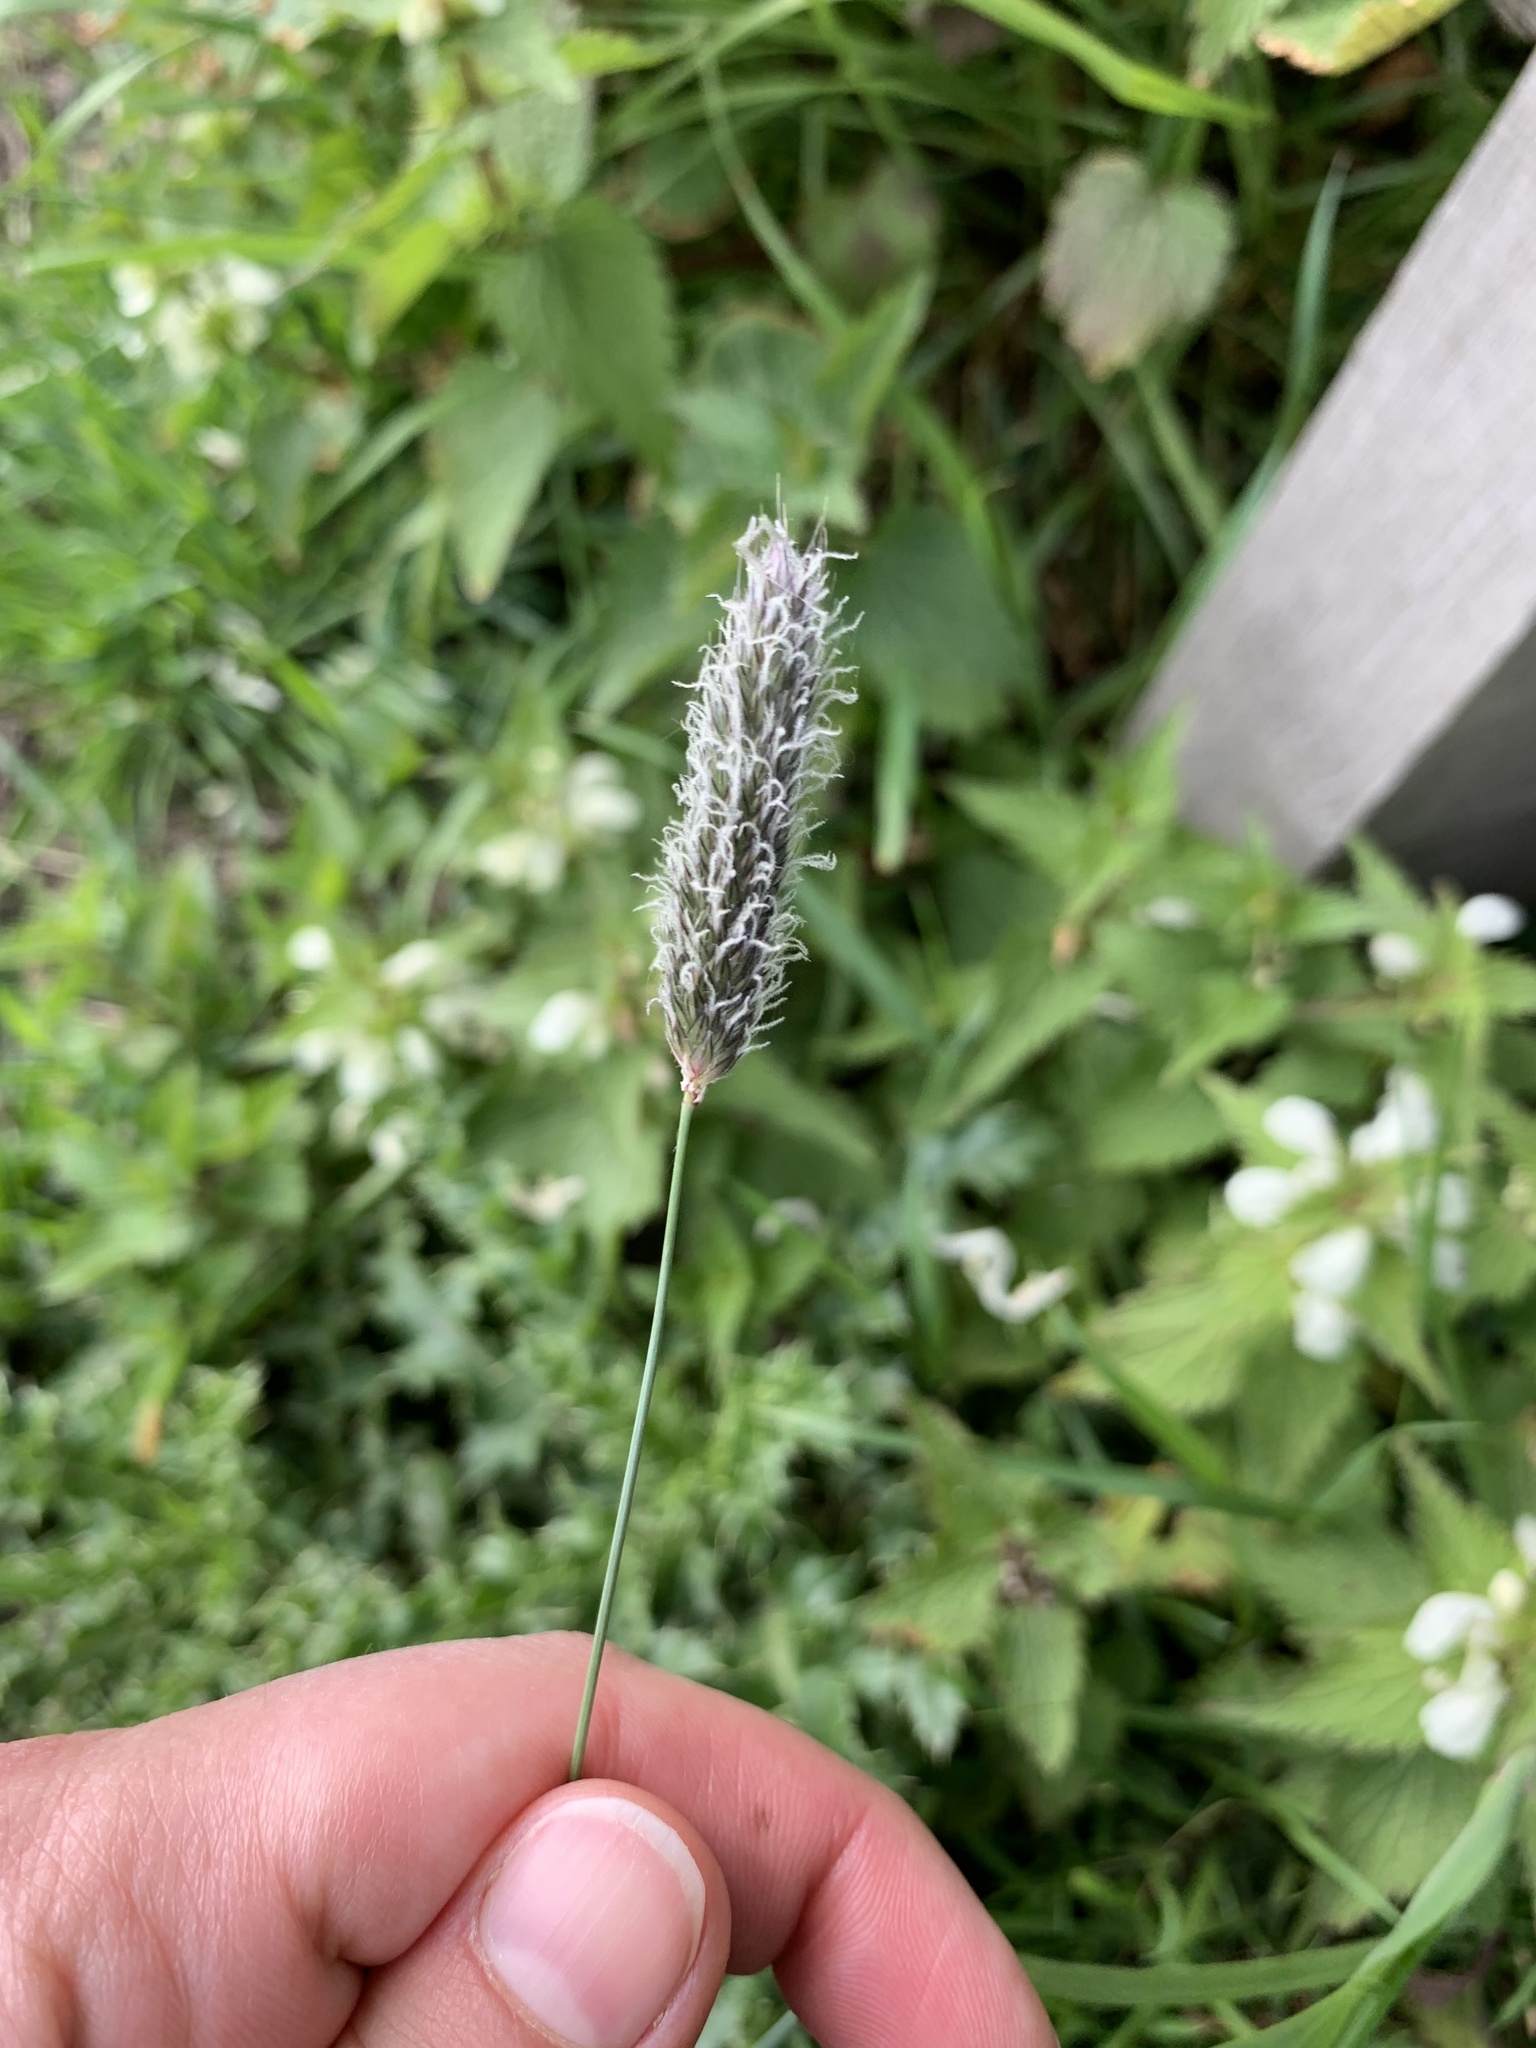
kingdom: Plantae
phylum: Tracheophyta
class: Liliopsida
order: Poales
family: Poaceae
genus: Alopecurus
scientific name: Alopecurus pratensis
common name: Meadow foxtail
